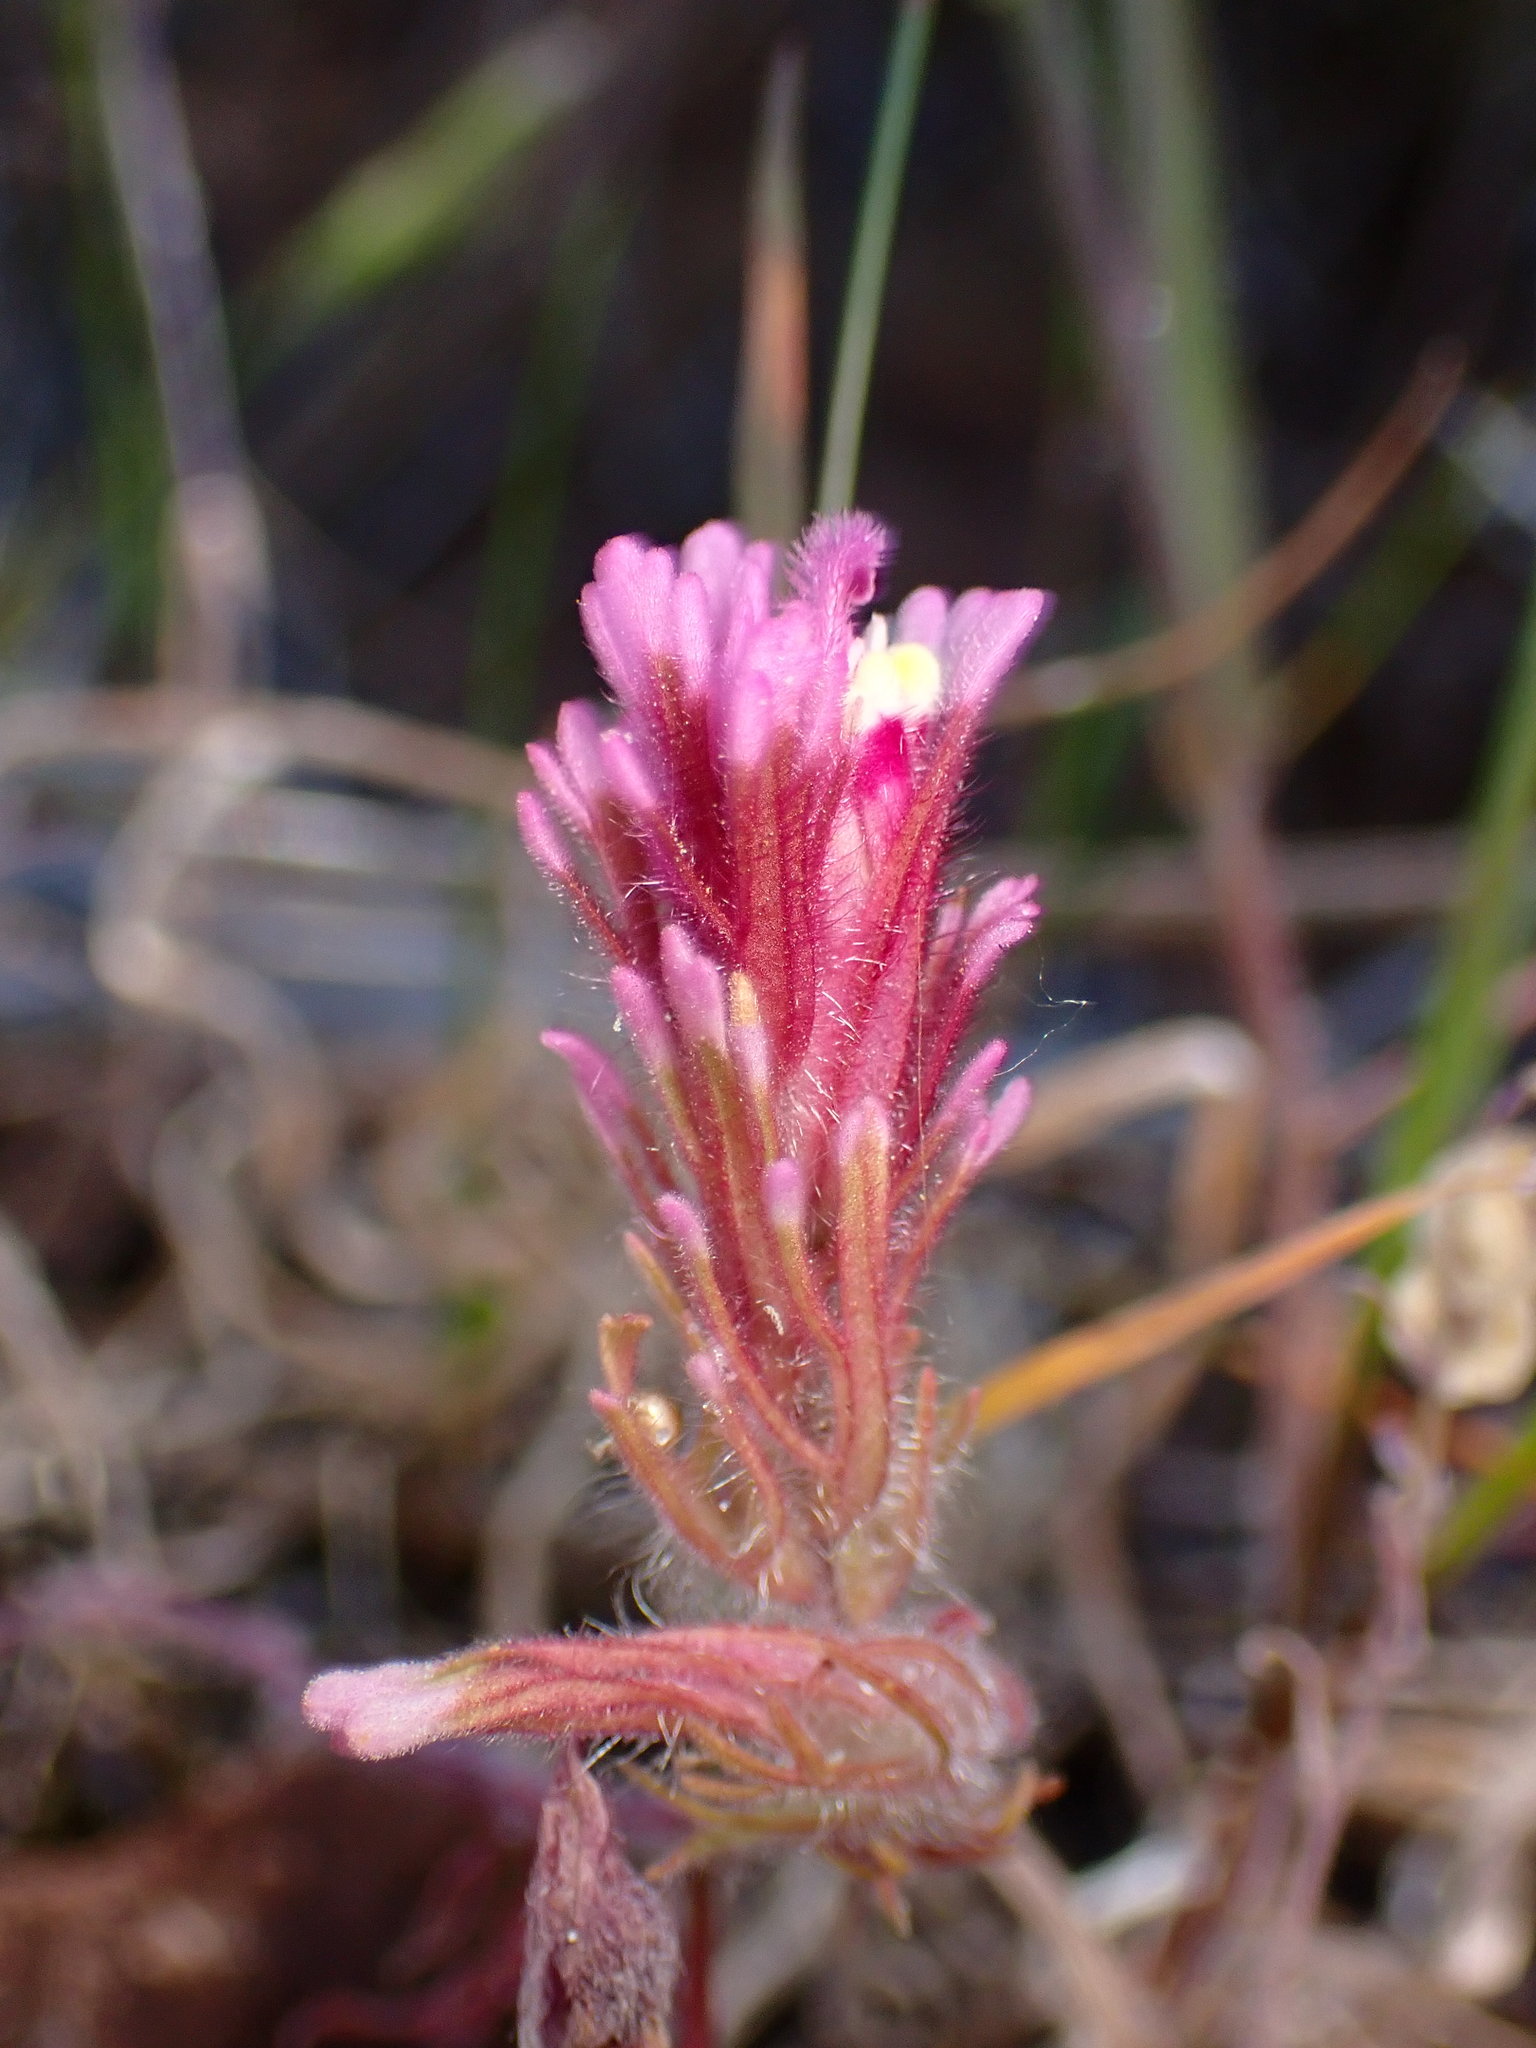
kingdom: Plantae
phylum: Tracheophyta
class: Magnoliopsida
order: Lamiales
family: Orobanchaceae
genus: Castilleja
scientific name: Castilleja exserta
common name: Purple owl-clover
